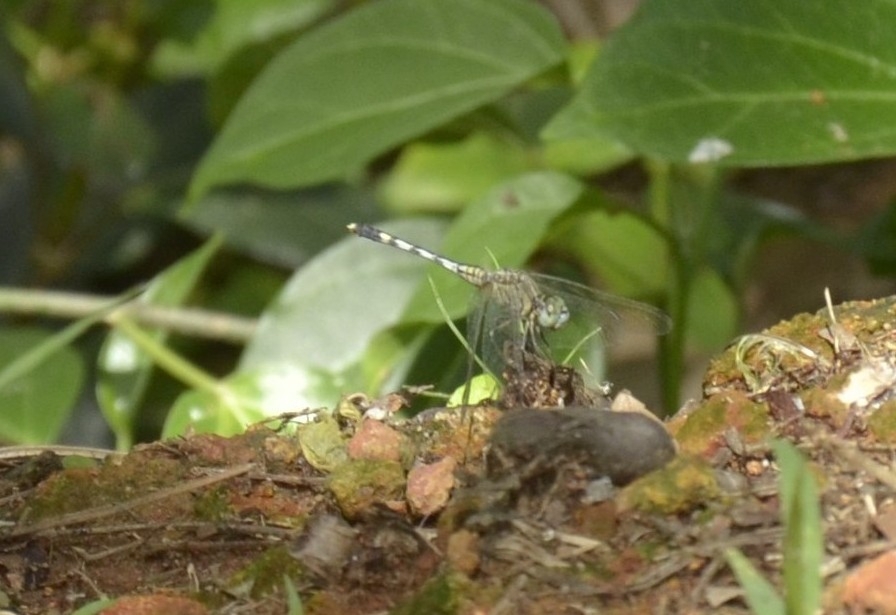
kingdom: Animalia
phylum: Arthropoda
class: Insecta
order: Odonata
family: Libellulidae
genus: Diplacodes
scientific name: Diplacodes trivialis
